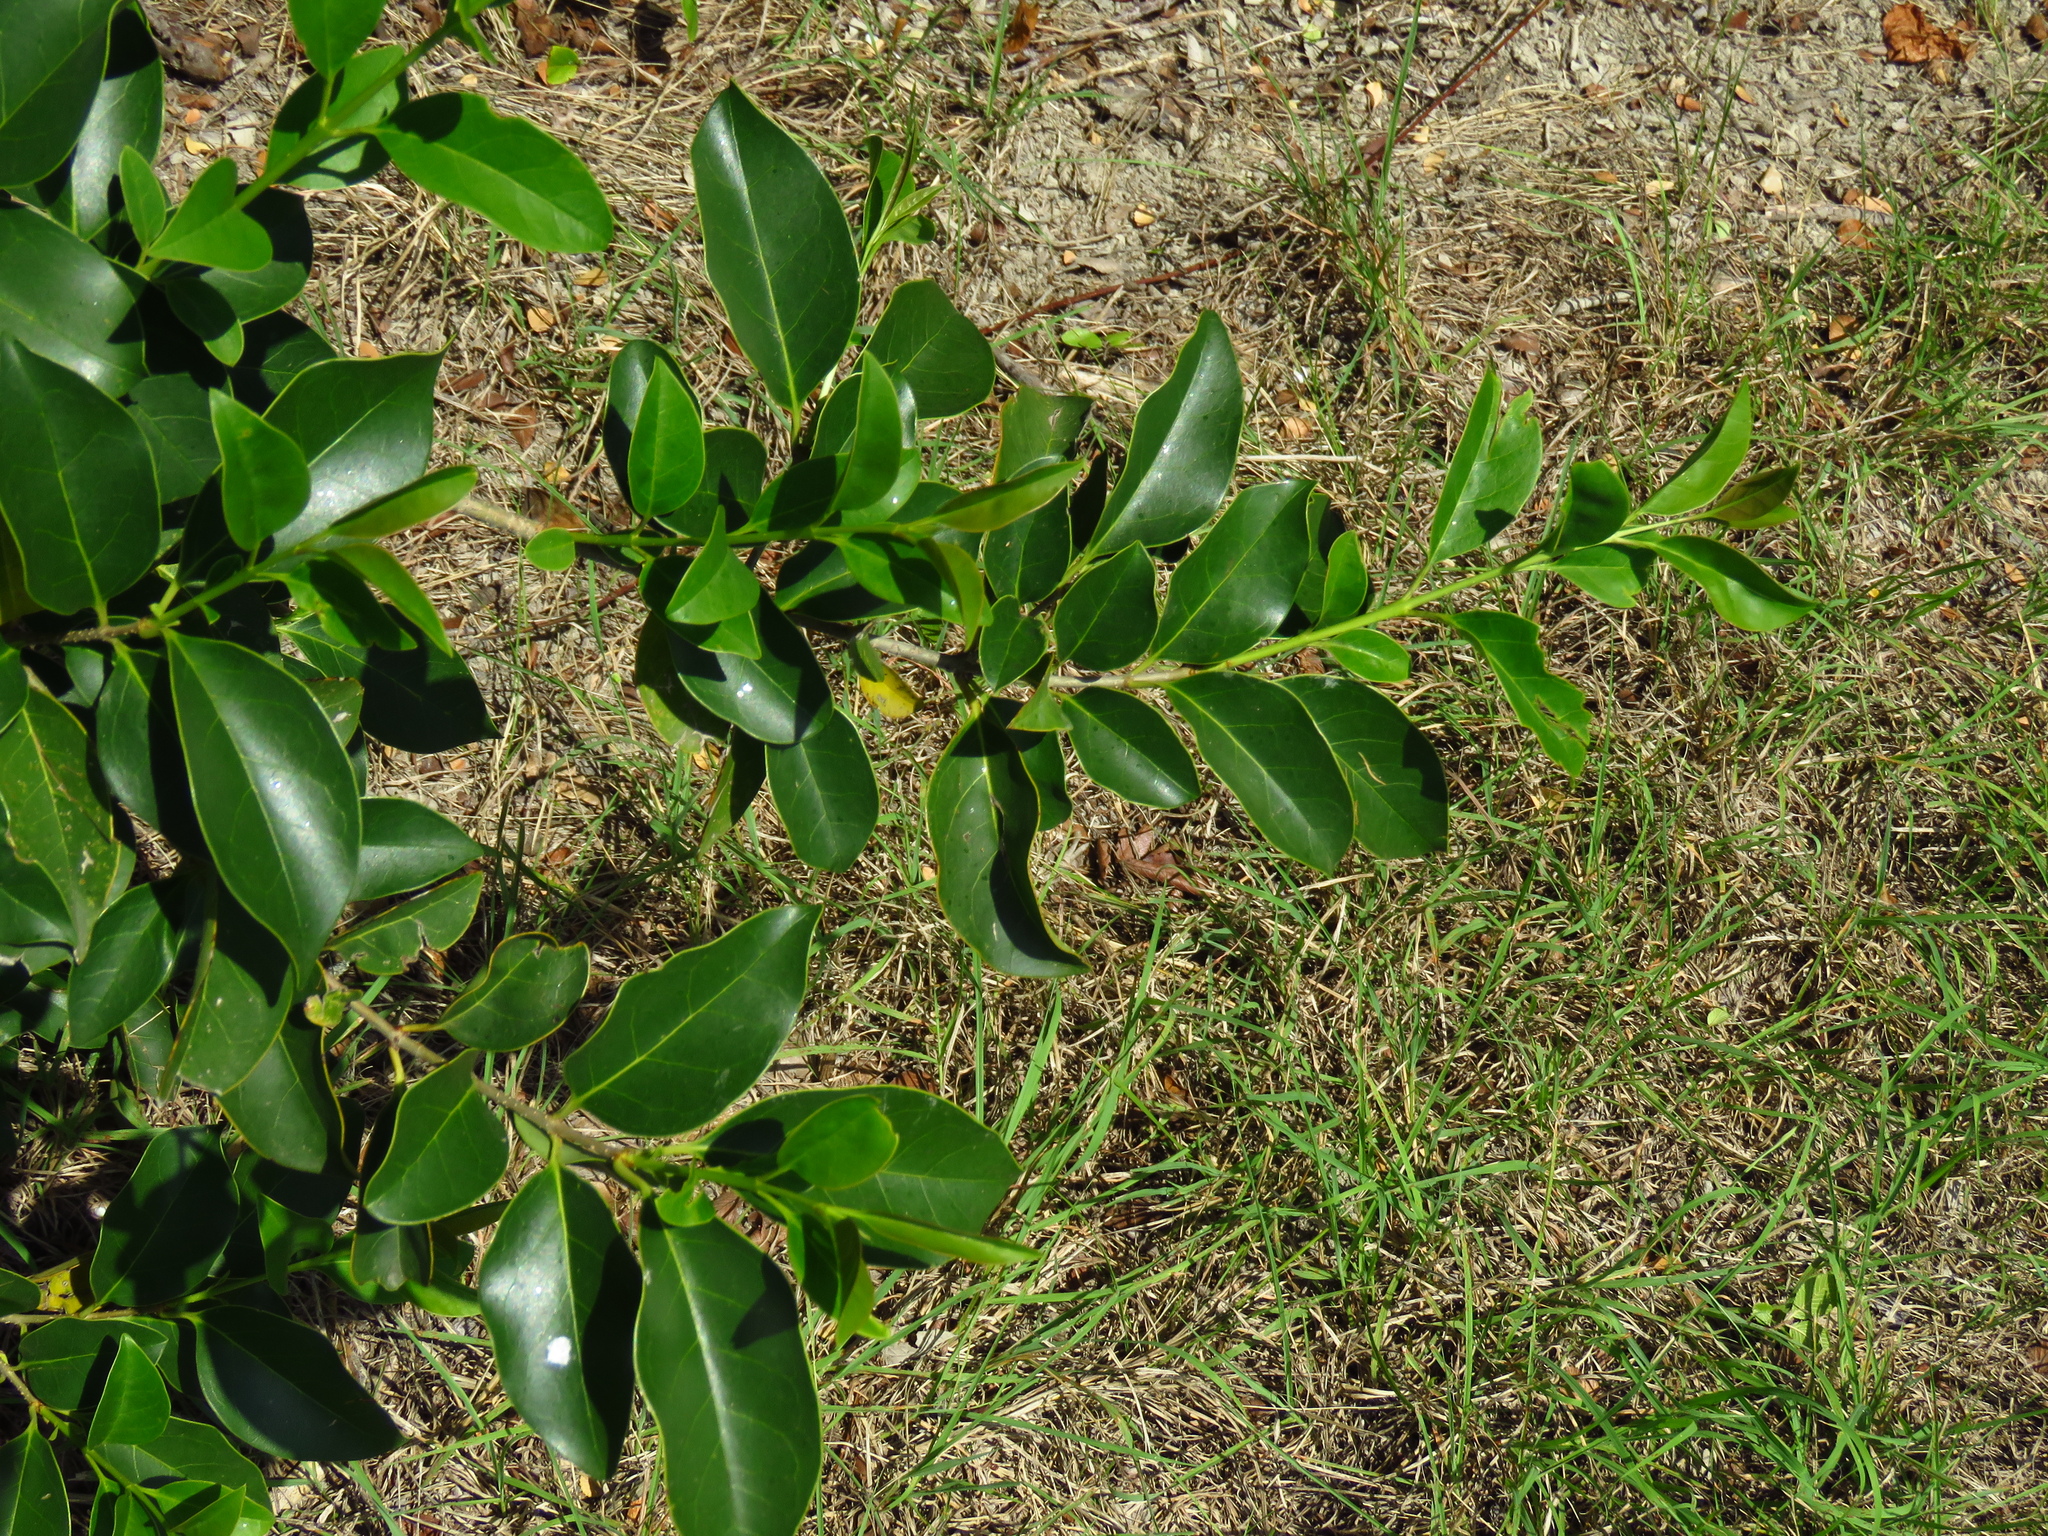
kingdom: Plantae
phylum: Tracheophyta
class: Magnoliopsida
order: Lamiales
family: Oleaceae
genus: Ligustrum
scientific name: Ligustrum lucidum
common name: Glossy privet
